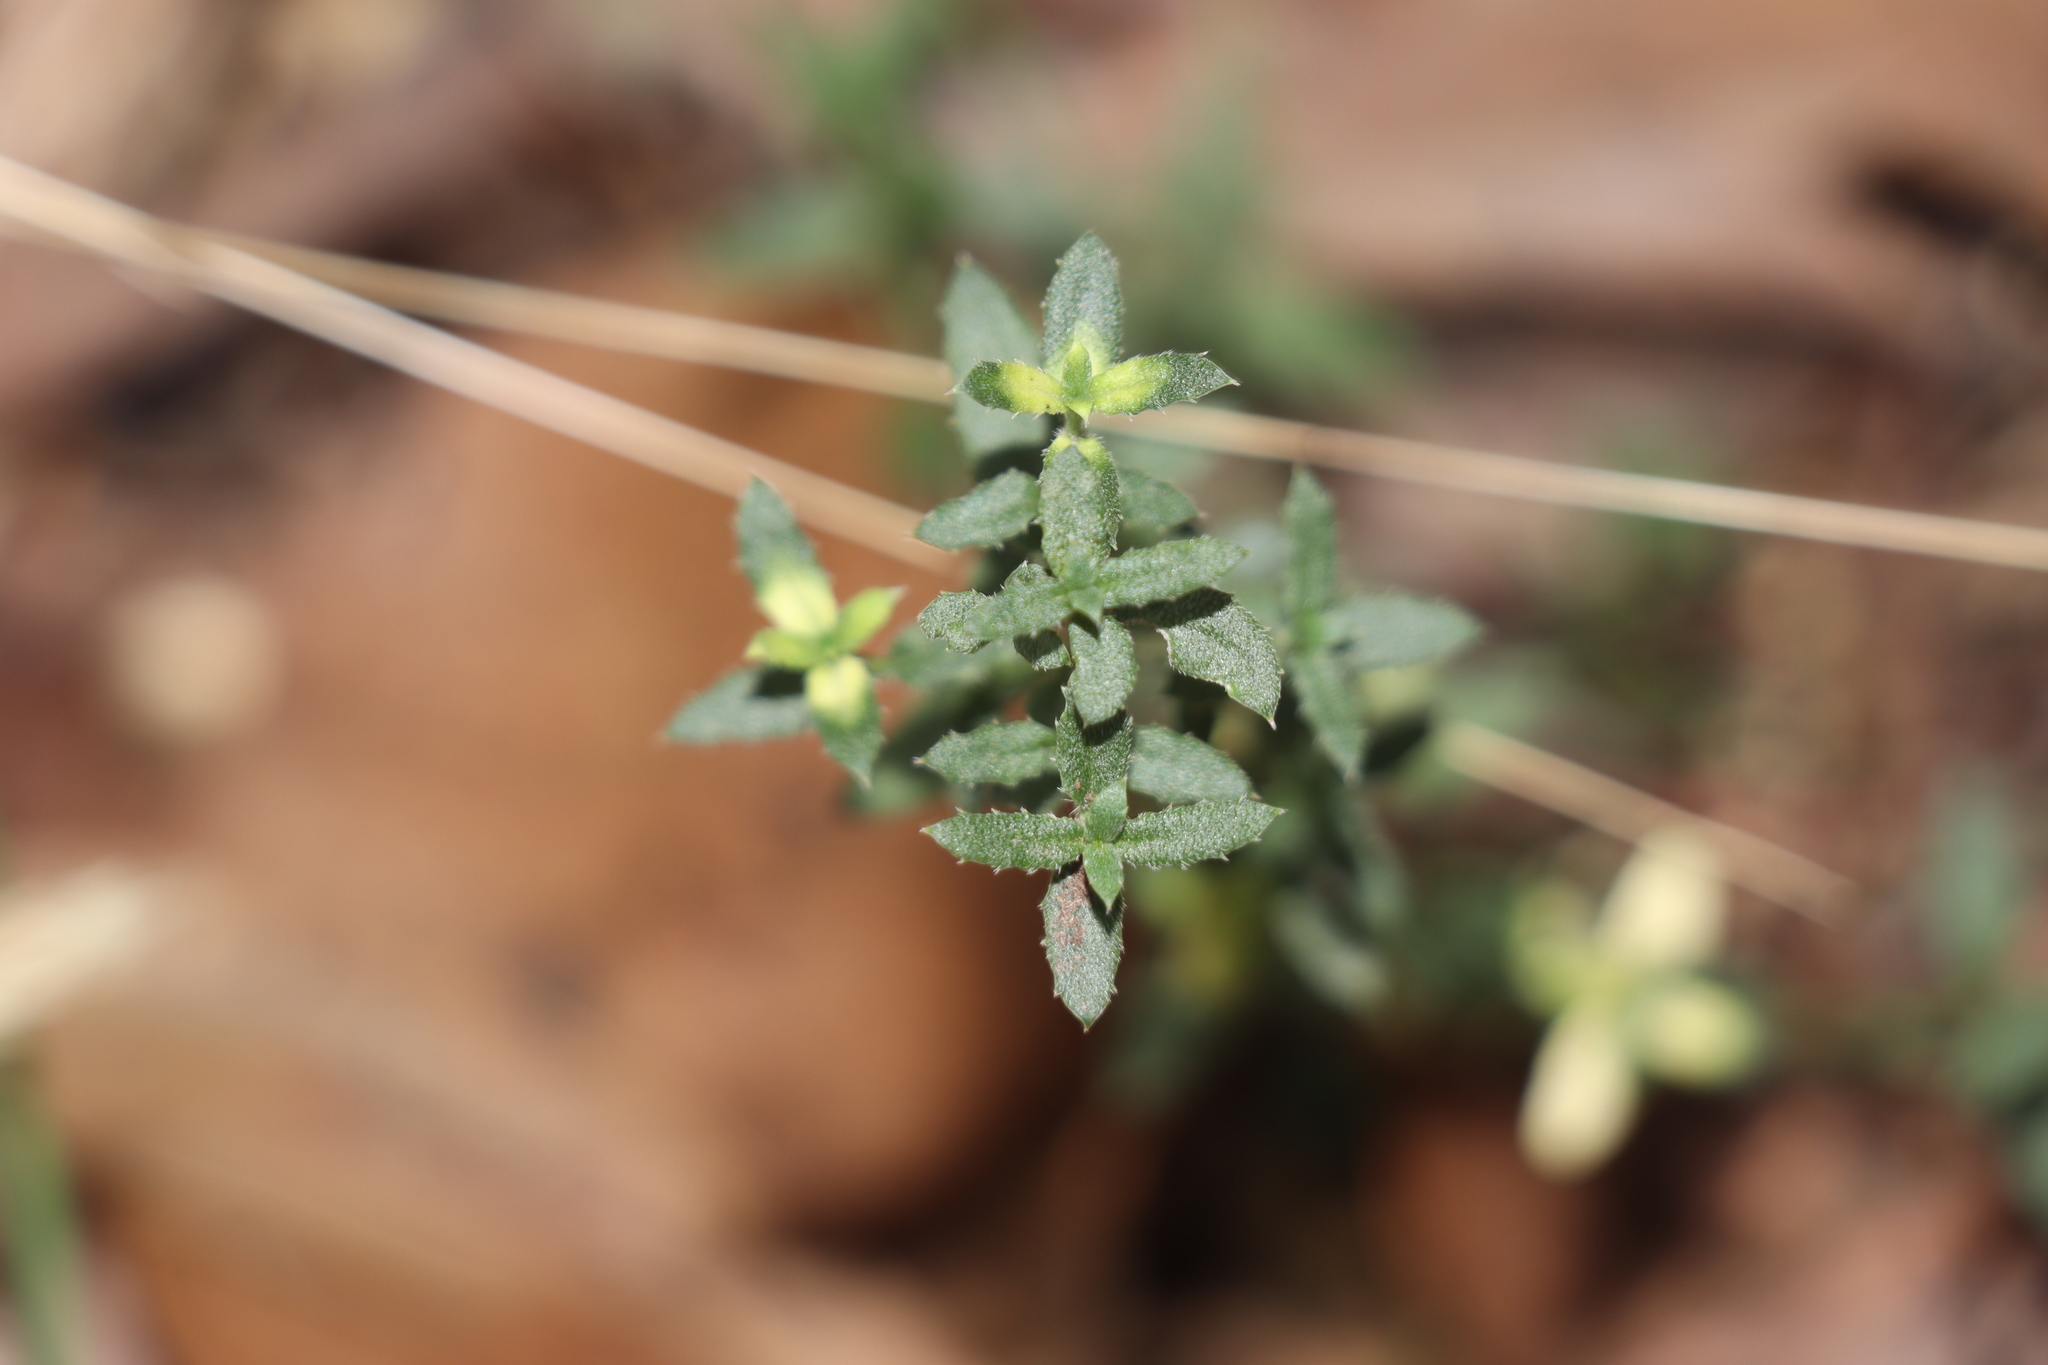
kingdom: Plantae
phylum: Tracheophyta
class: Magnoliopsida
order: Saxifragales
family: Haloragaceae
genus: Gonocarpus
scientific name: Gonocarpus tetragynus
